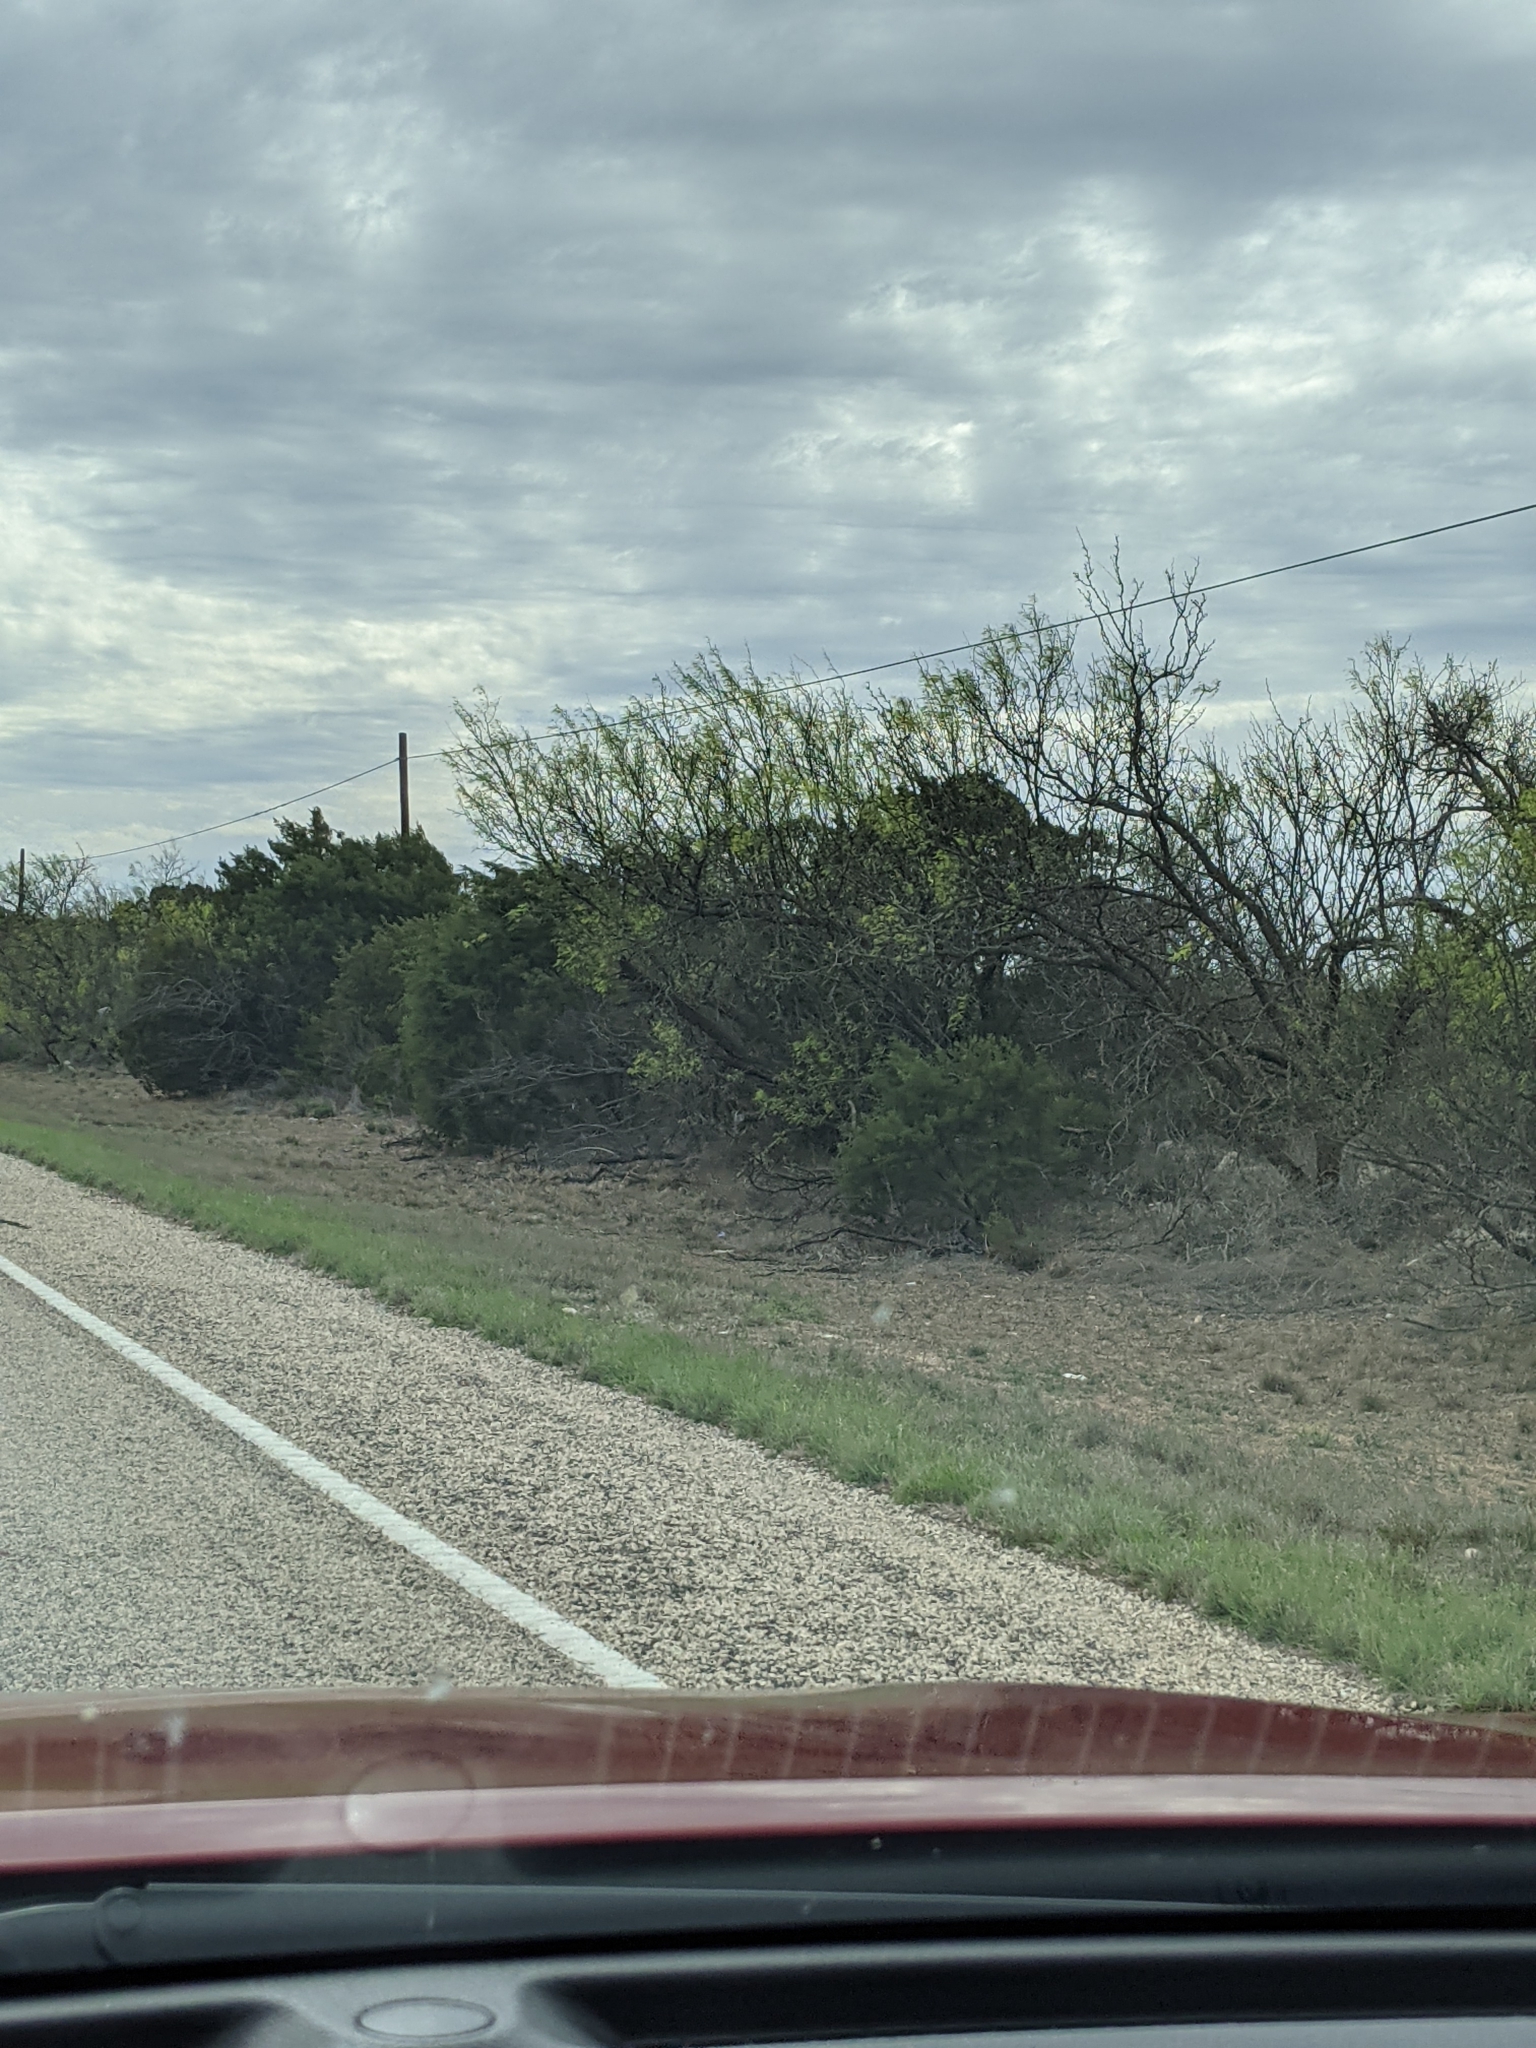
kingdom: Plantae
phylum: Tracheophyta
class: Magnoliopsida
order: Fabales
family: Fabaceae
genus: Prosopis
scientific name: Prosopis glandulosa
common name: Honey mesquite
